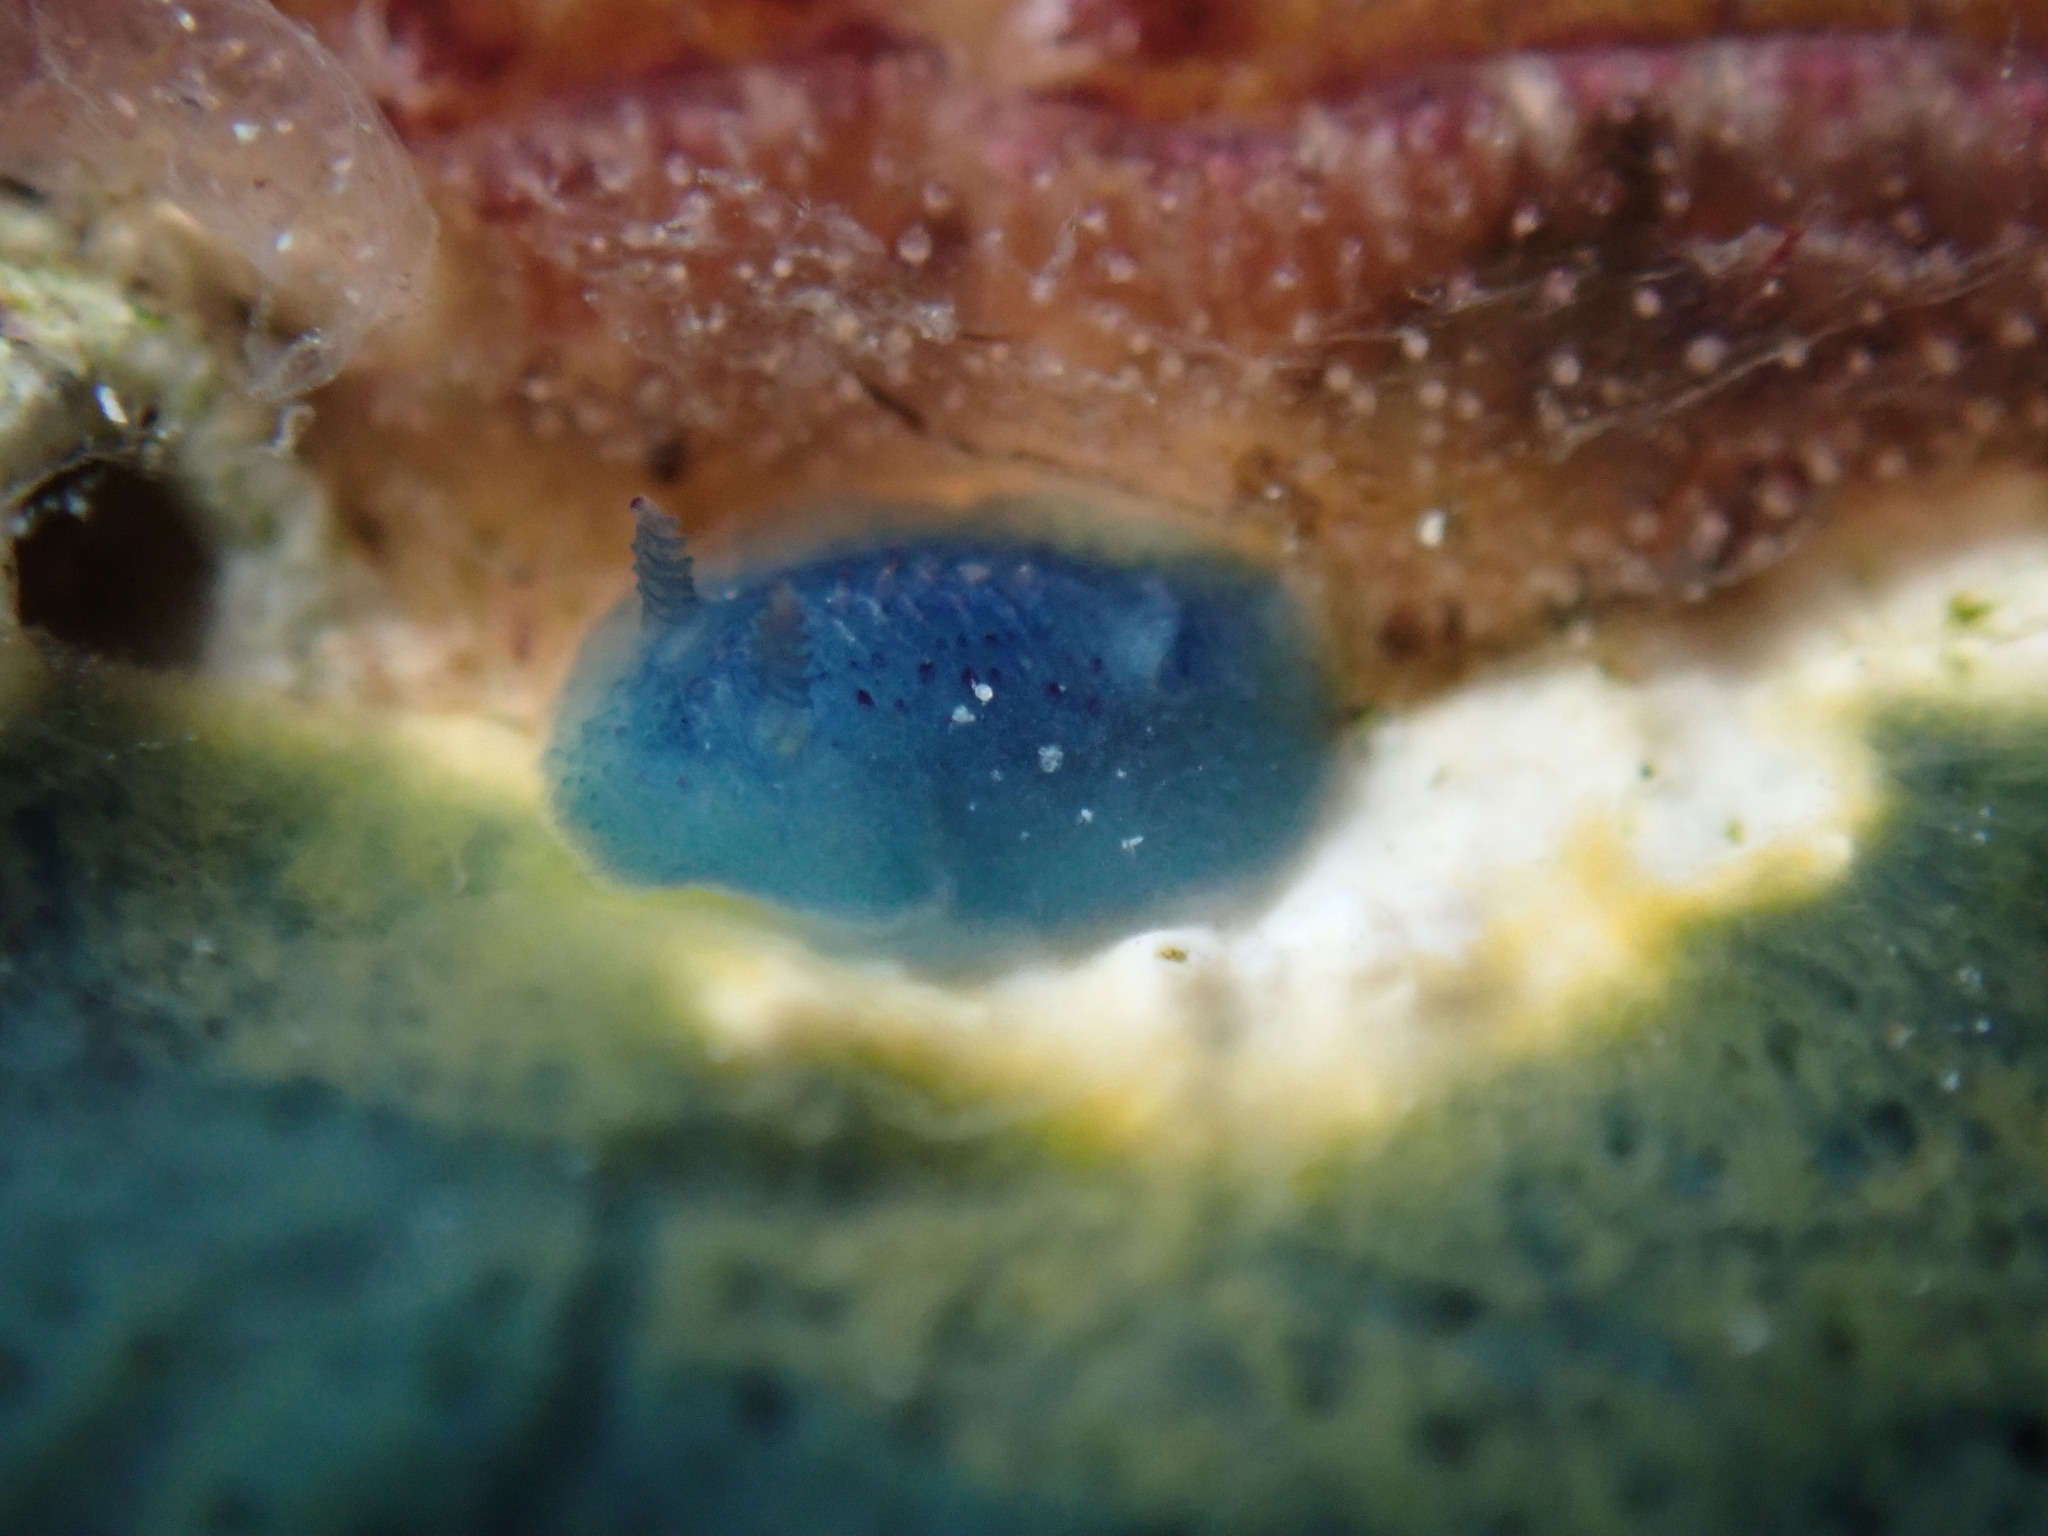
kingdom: Animalia
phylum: Mollusca
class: Gastropoda
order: Nudibranchia
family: Dorididae
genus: Doriopsis
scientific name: Doriopsis pecten
